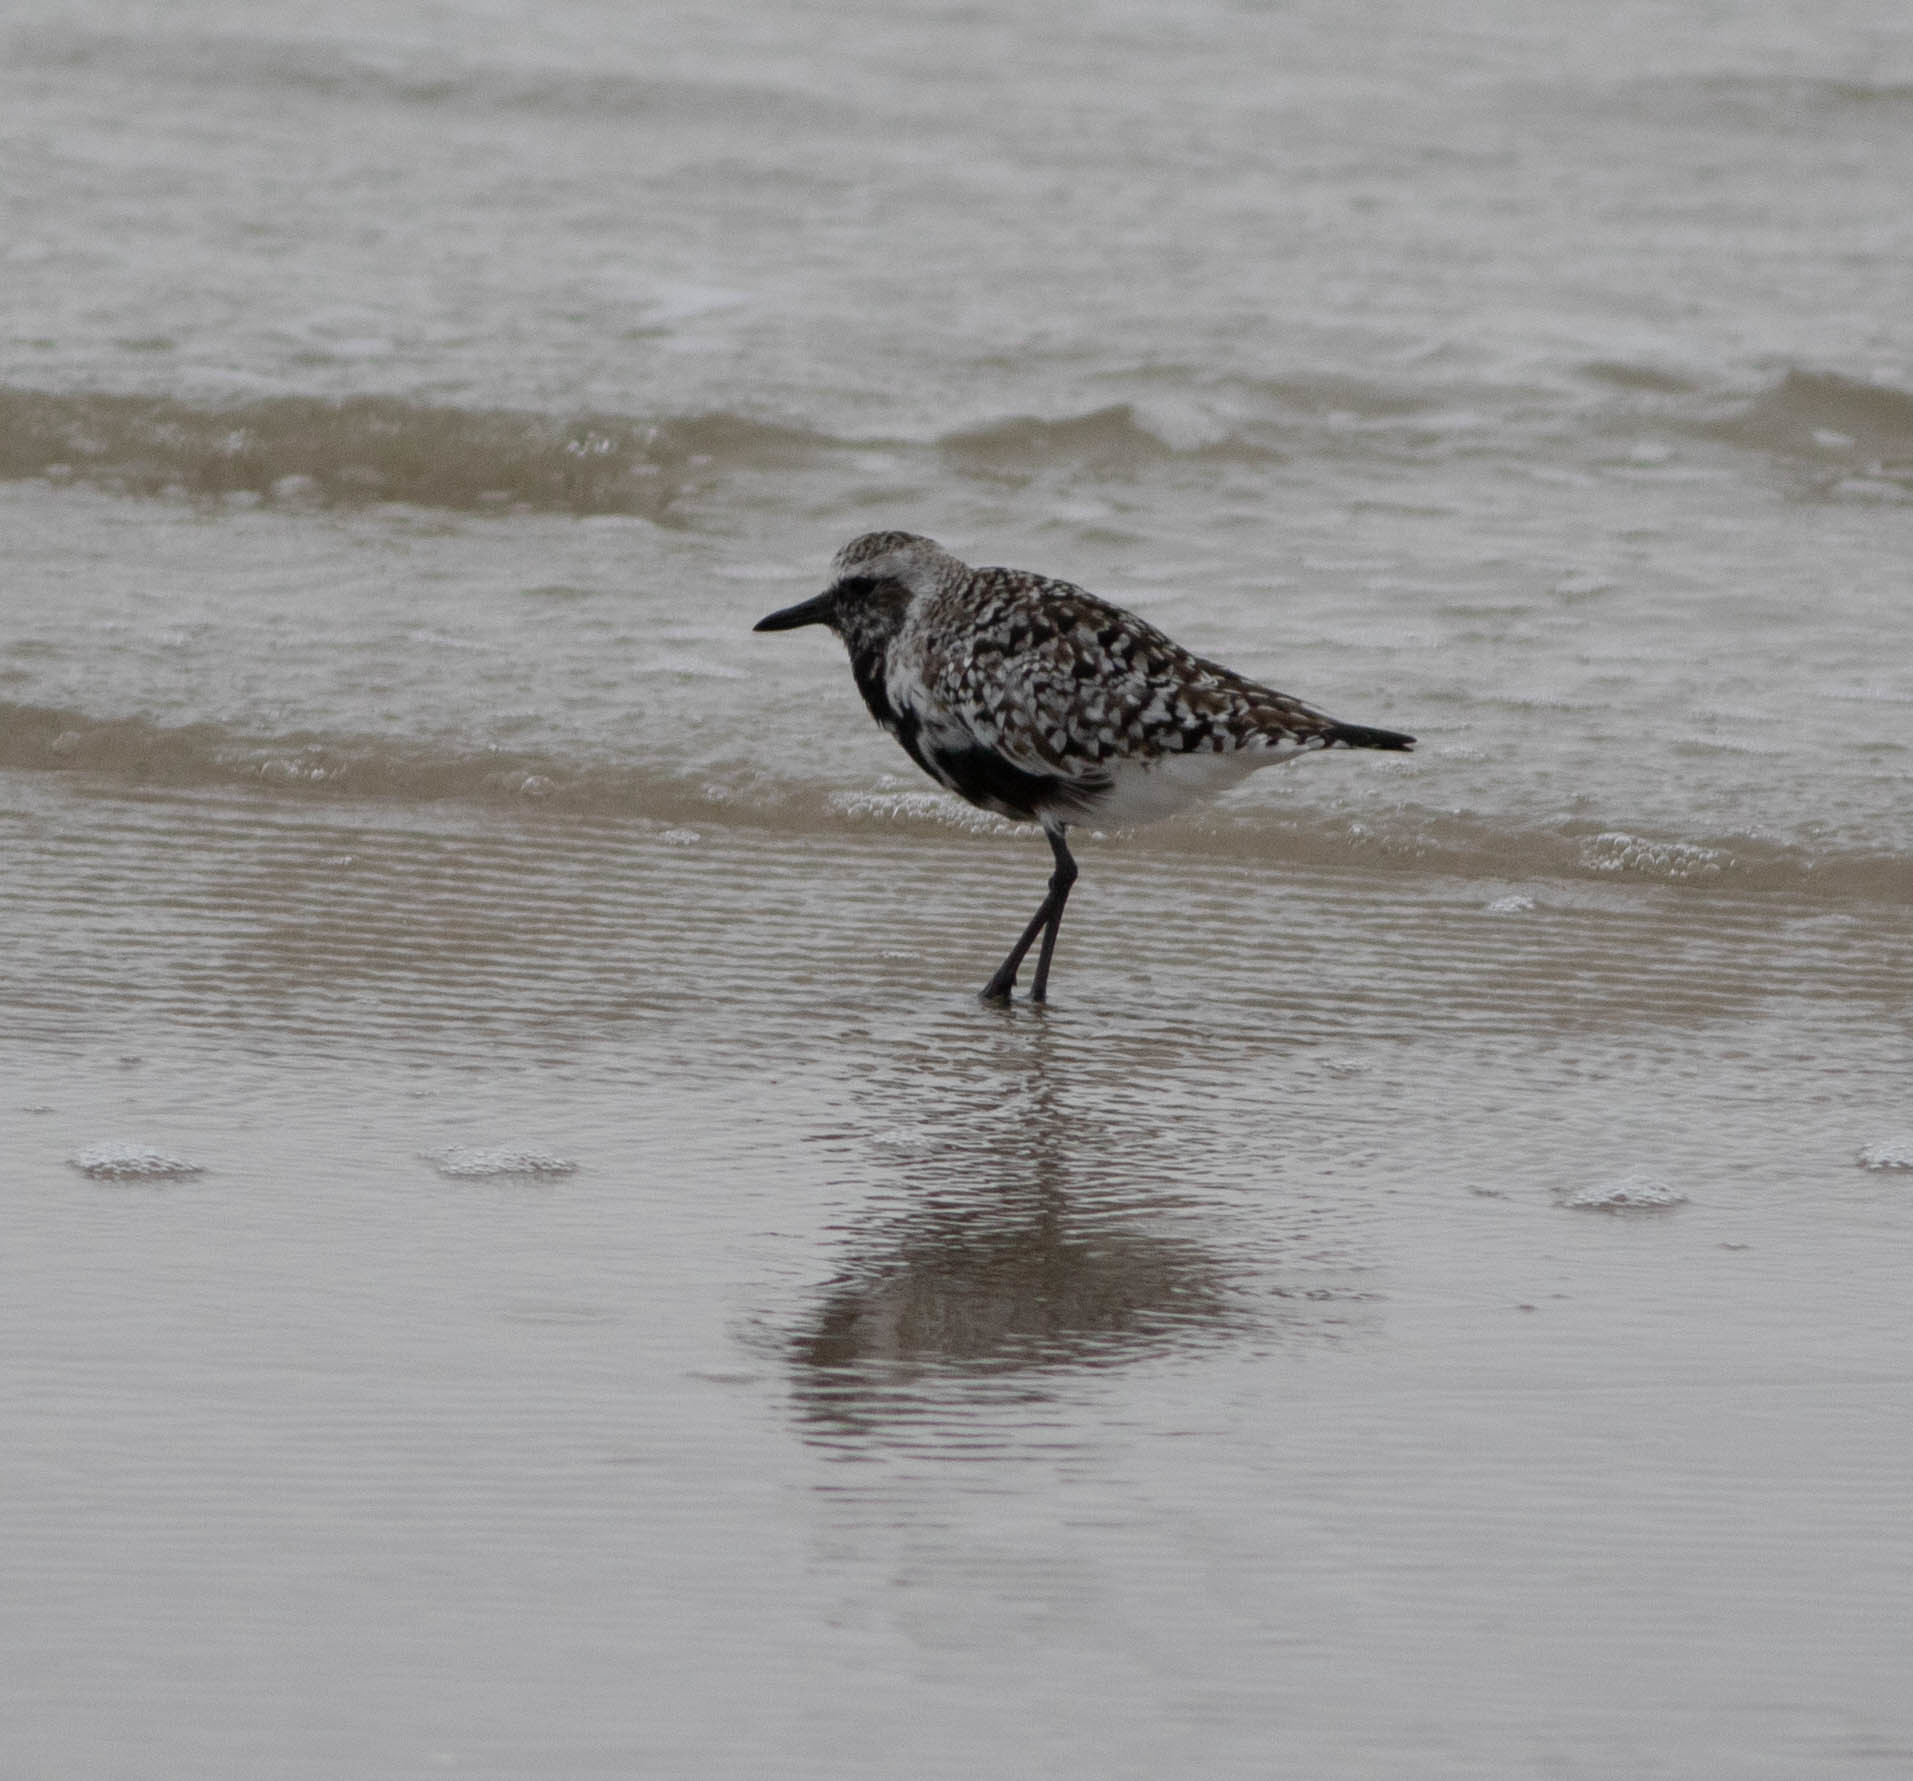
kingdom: Animalia
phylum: Chordata
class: Aves
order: Charadriiformes
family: Charadriidae
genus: Pluvialis
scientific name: Pluvialis squatarola
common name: Grey plover
